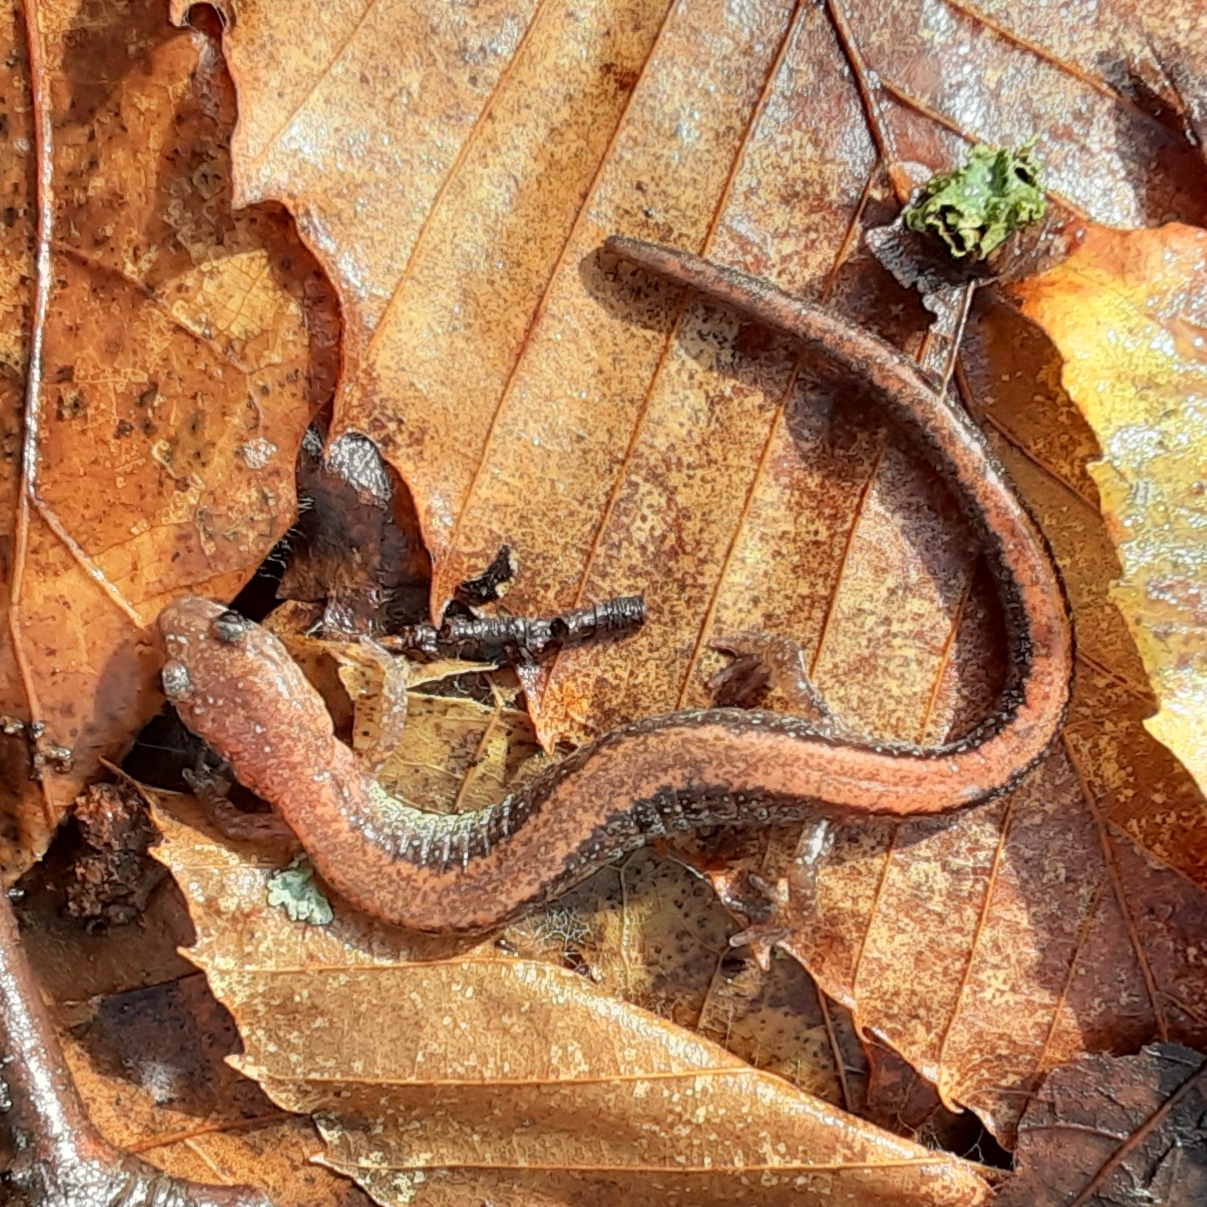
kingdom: Animalia
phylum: Chordata
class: Amphibia
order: Caudata
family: Plethodontidae
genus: Plethodon
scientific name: Plethodon cinereus
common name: Redback salamander
